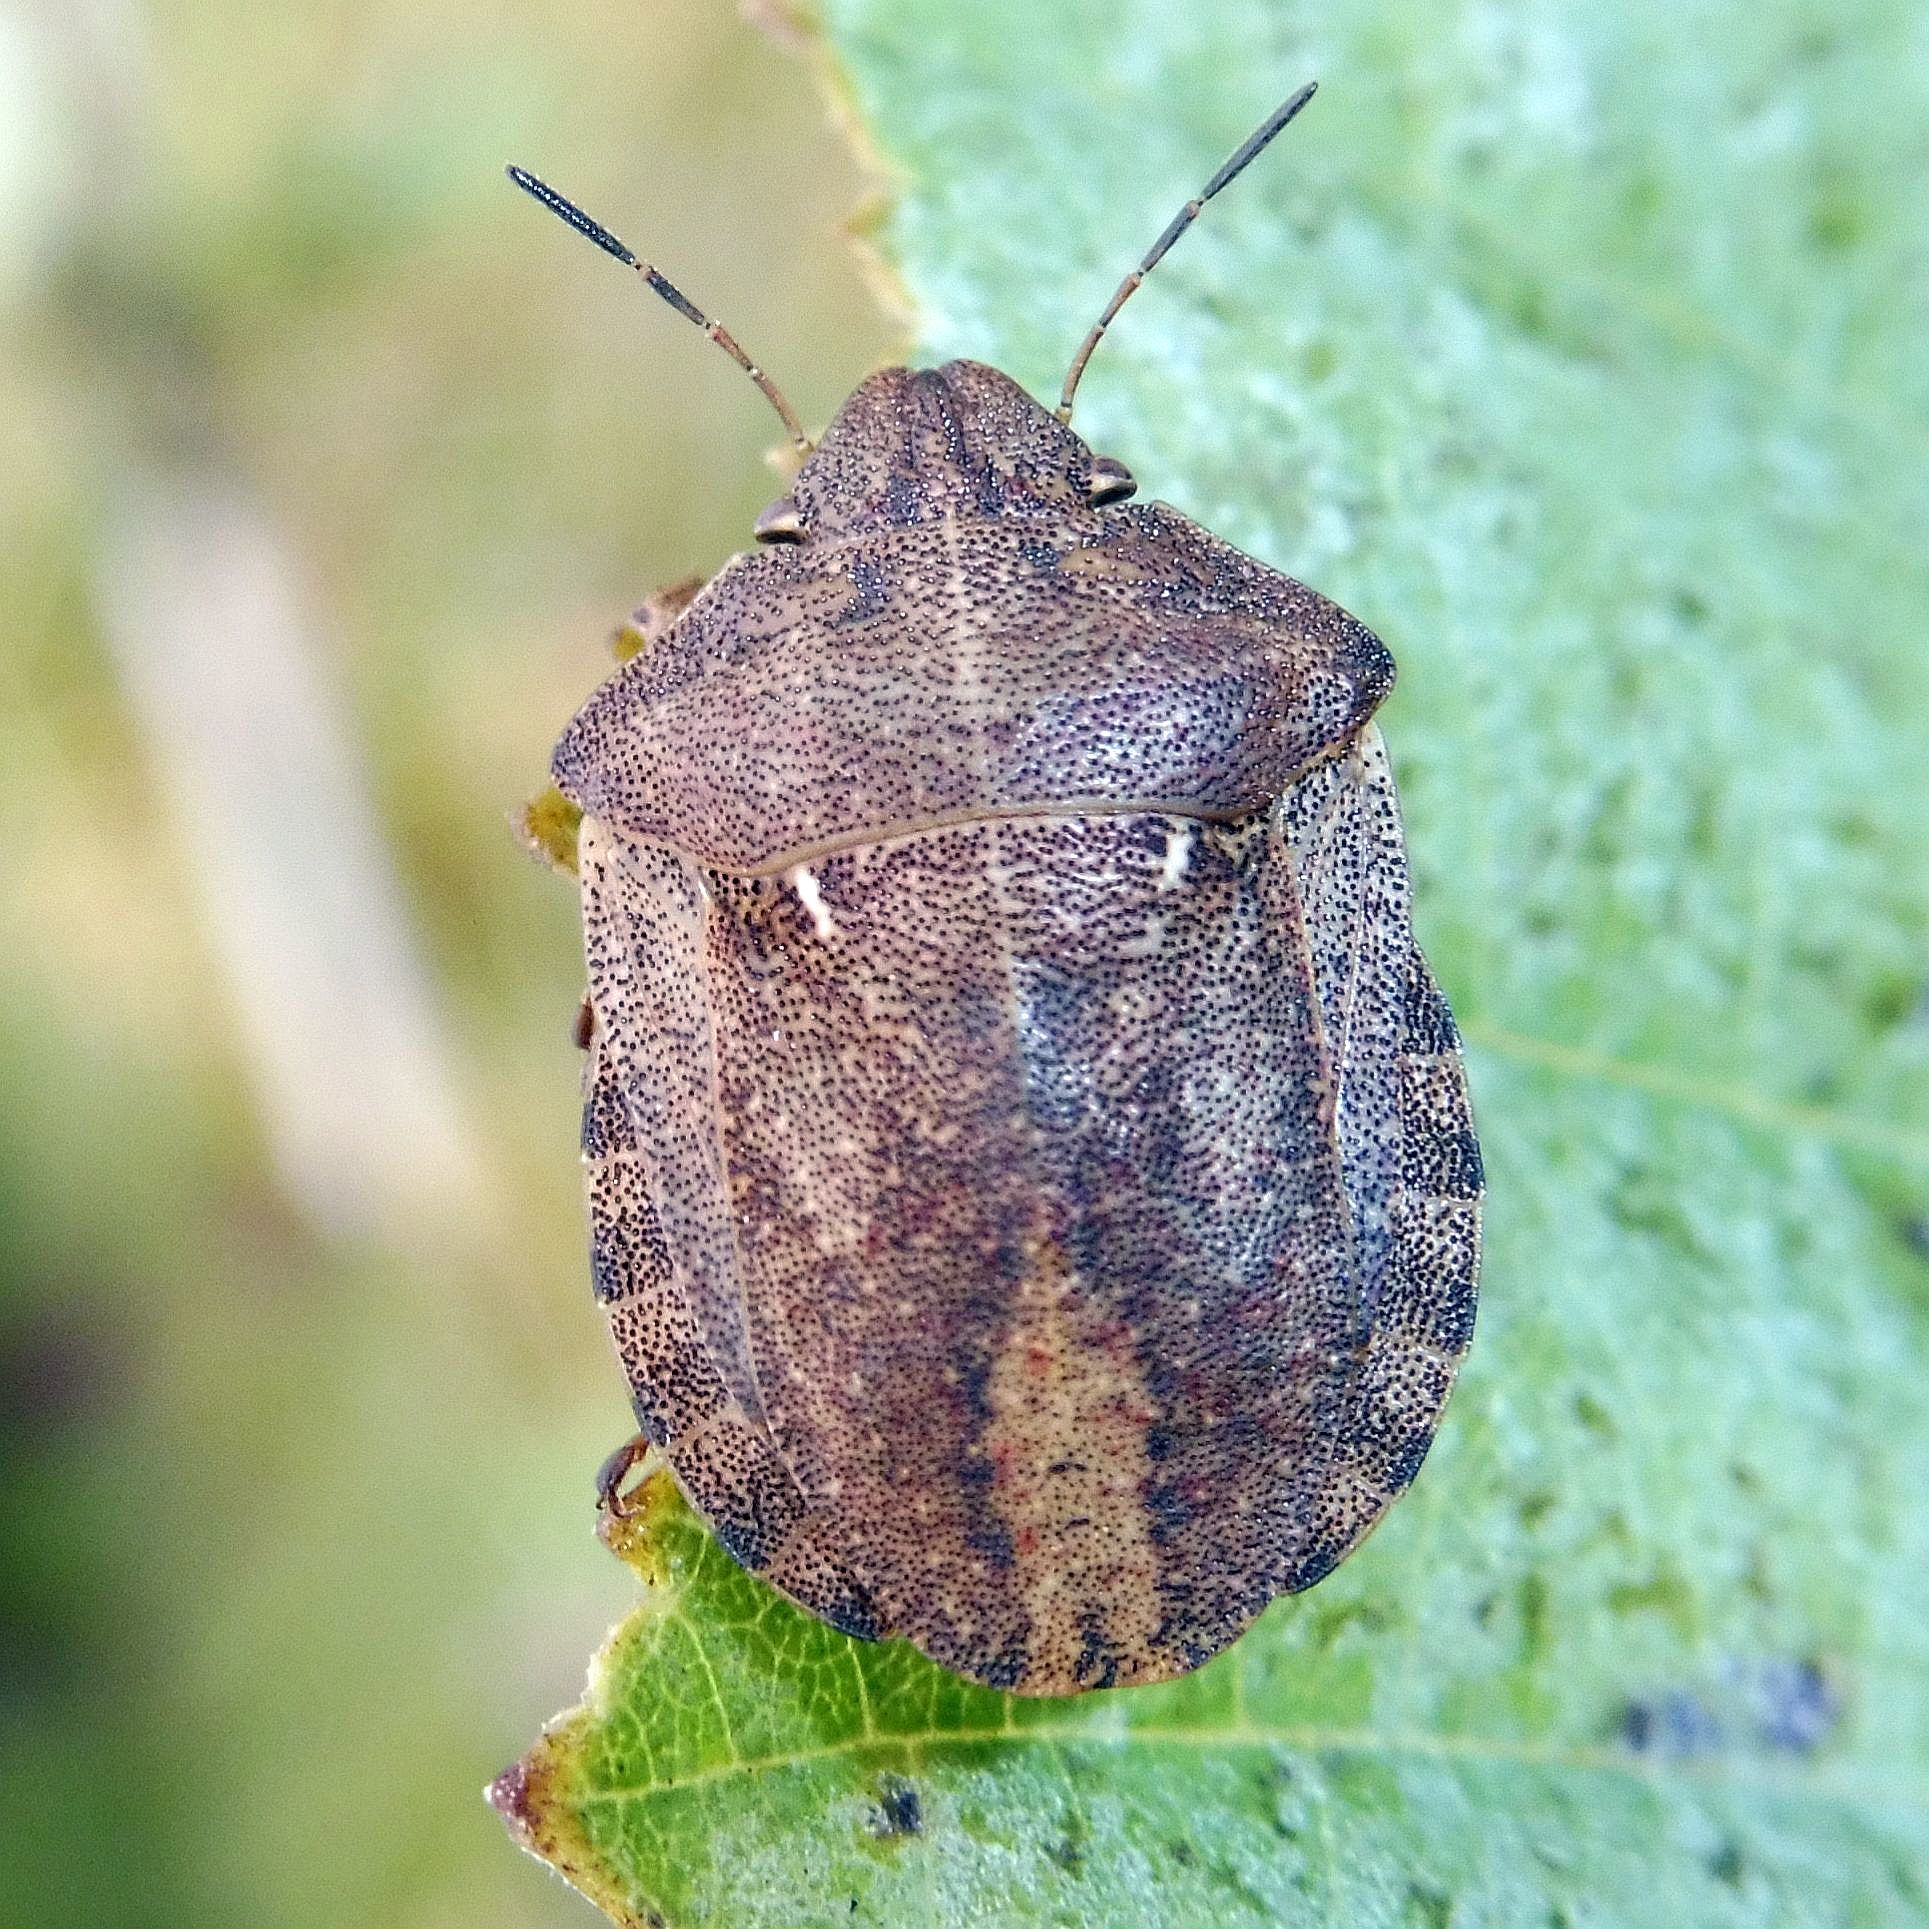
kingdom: Animalia
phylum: Arthropoda
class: Insecta
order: Hemiptera
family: Scutelleridae
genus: Eurygaster
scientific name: Eurygaster testudinaria
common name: Tortoise bug
